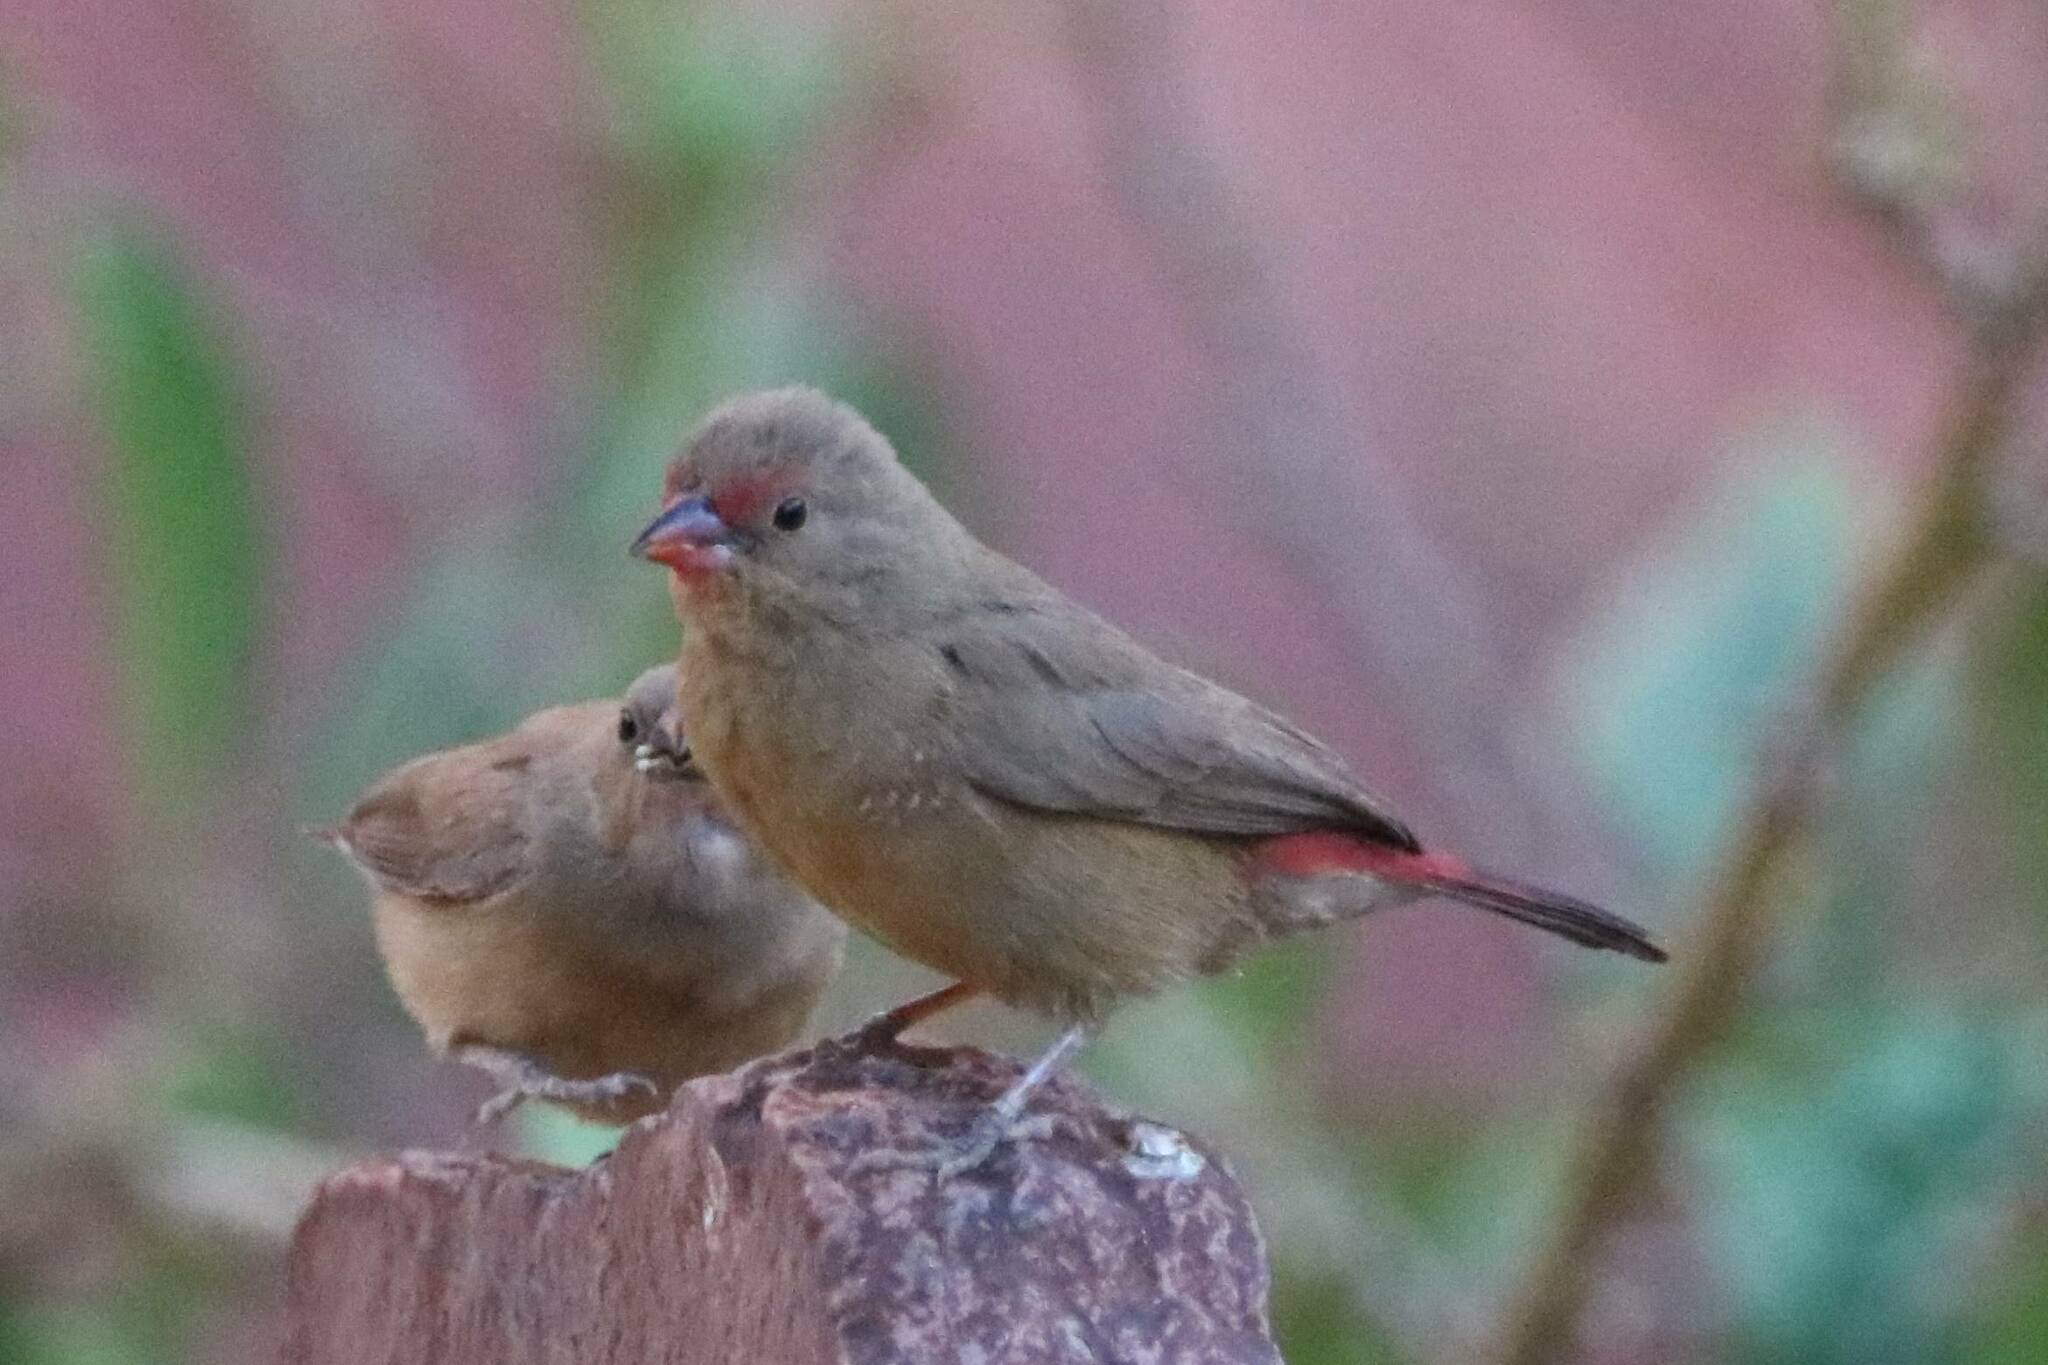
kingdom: Animalia
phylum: Chordata
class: Aves
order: Passeriformes
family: Estrildidae
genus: Lagonosticta
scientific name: Lagonosticta senegala
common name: Red-billed firefinch
